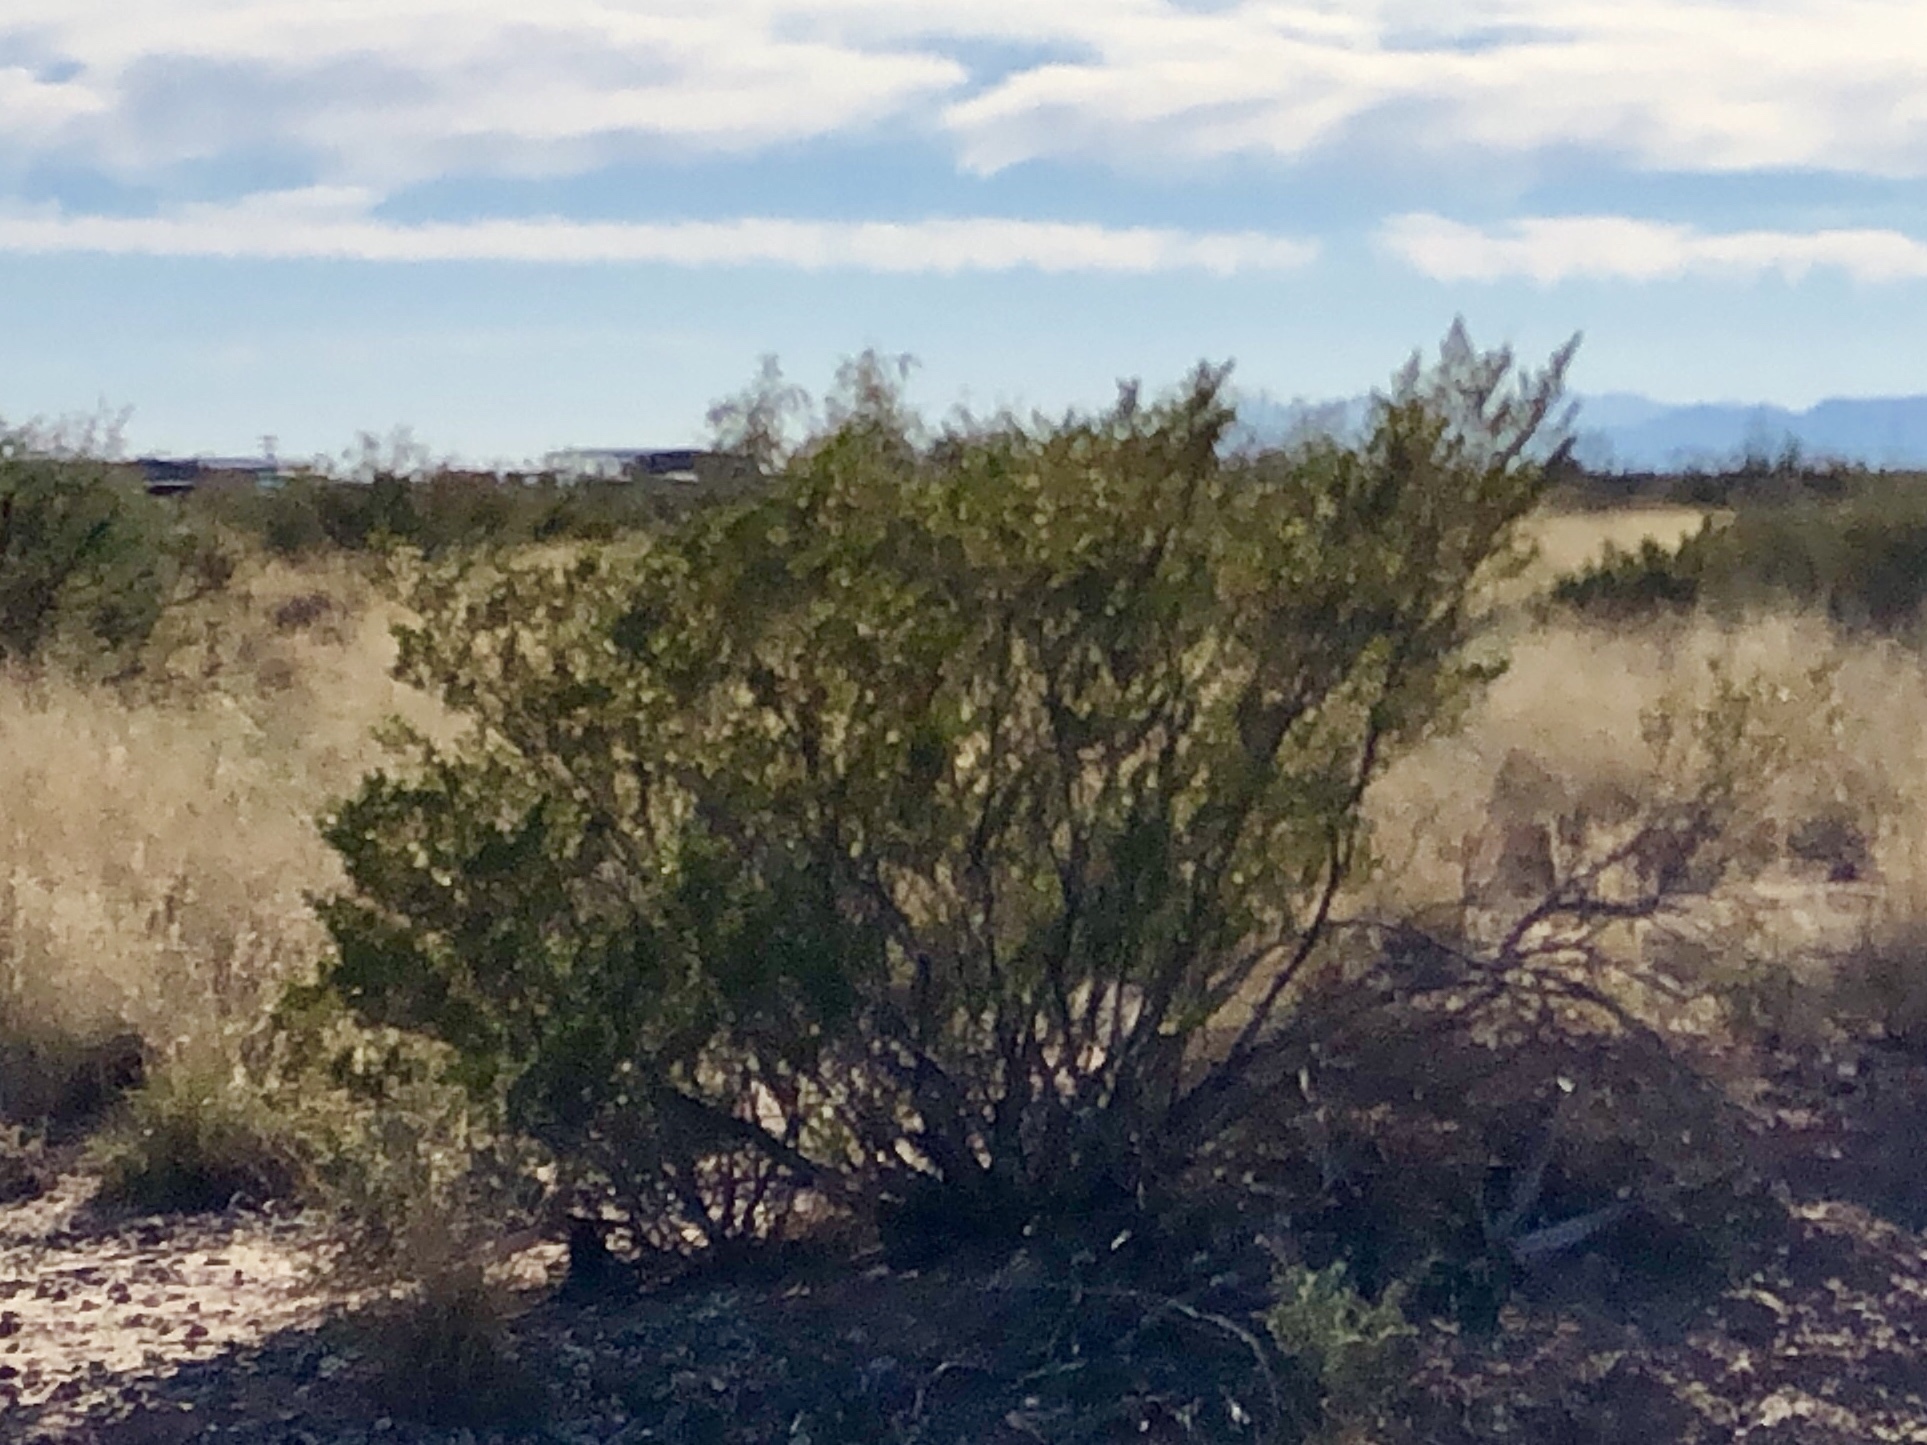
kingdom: Plantae
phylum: Tracheophyta
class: Magnoliopsida
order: Zygophyllales
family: Zygophyllaceae
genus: Larrea
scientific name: Larrea tridentata
